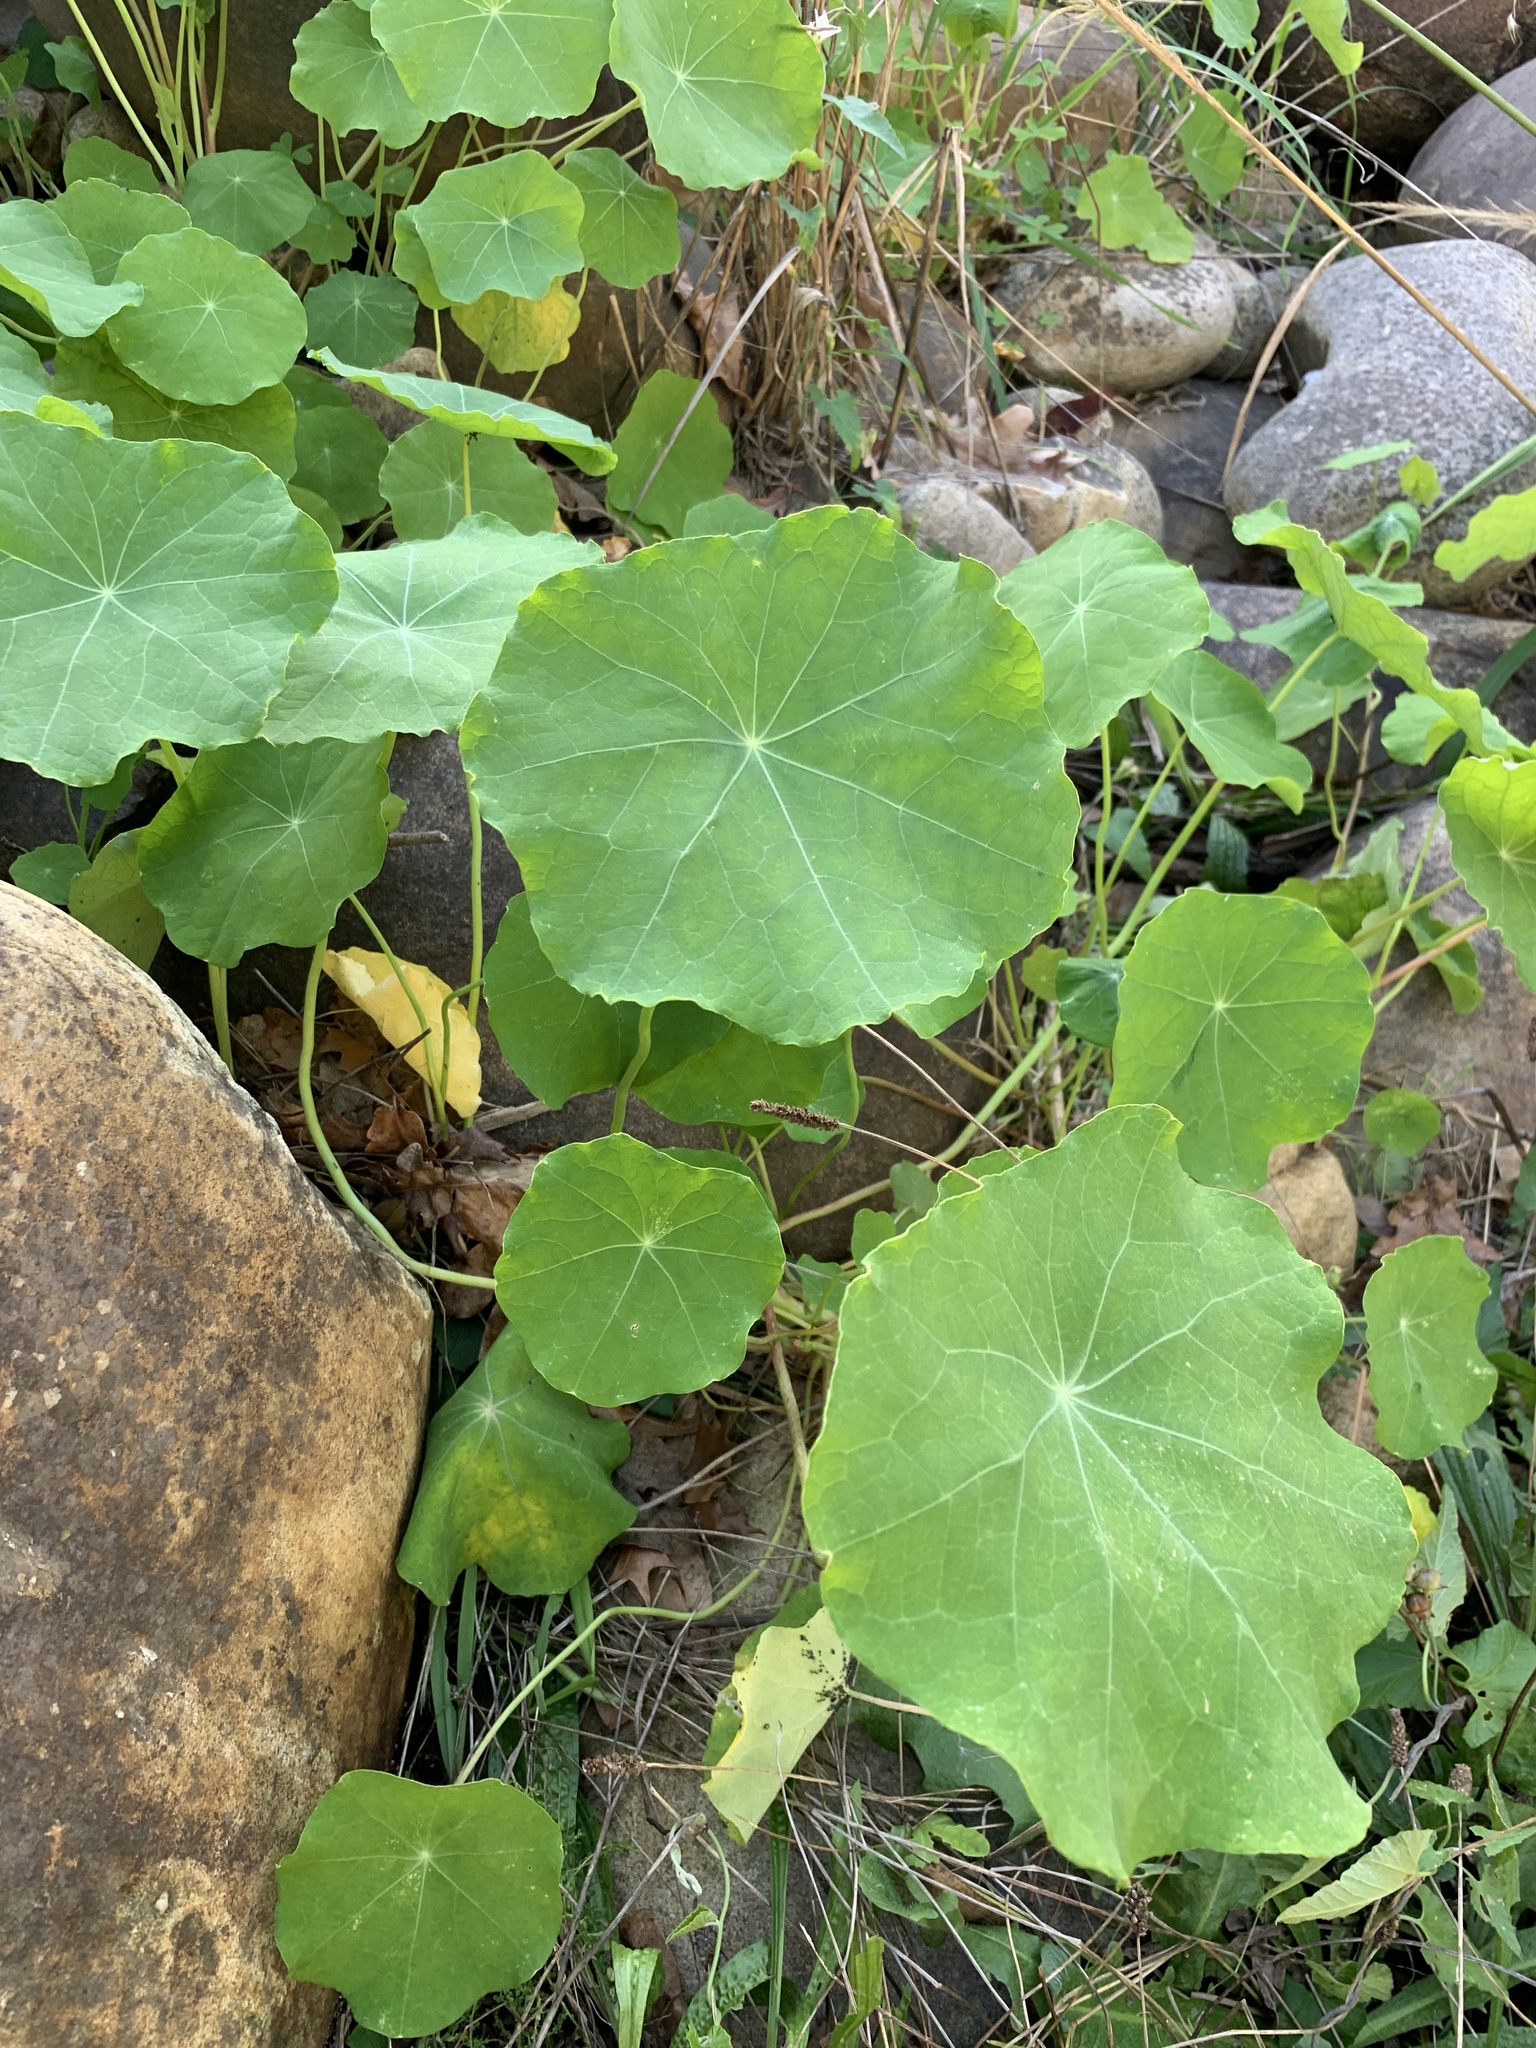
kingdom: Plantae
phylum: Tracheophyta
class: Magnoliopsida
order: Brassicales
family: Tropaeolaceae
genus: Tropaeolum
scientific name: Tropaeolum majus
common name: Nasturtium
